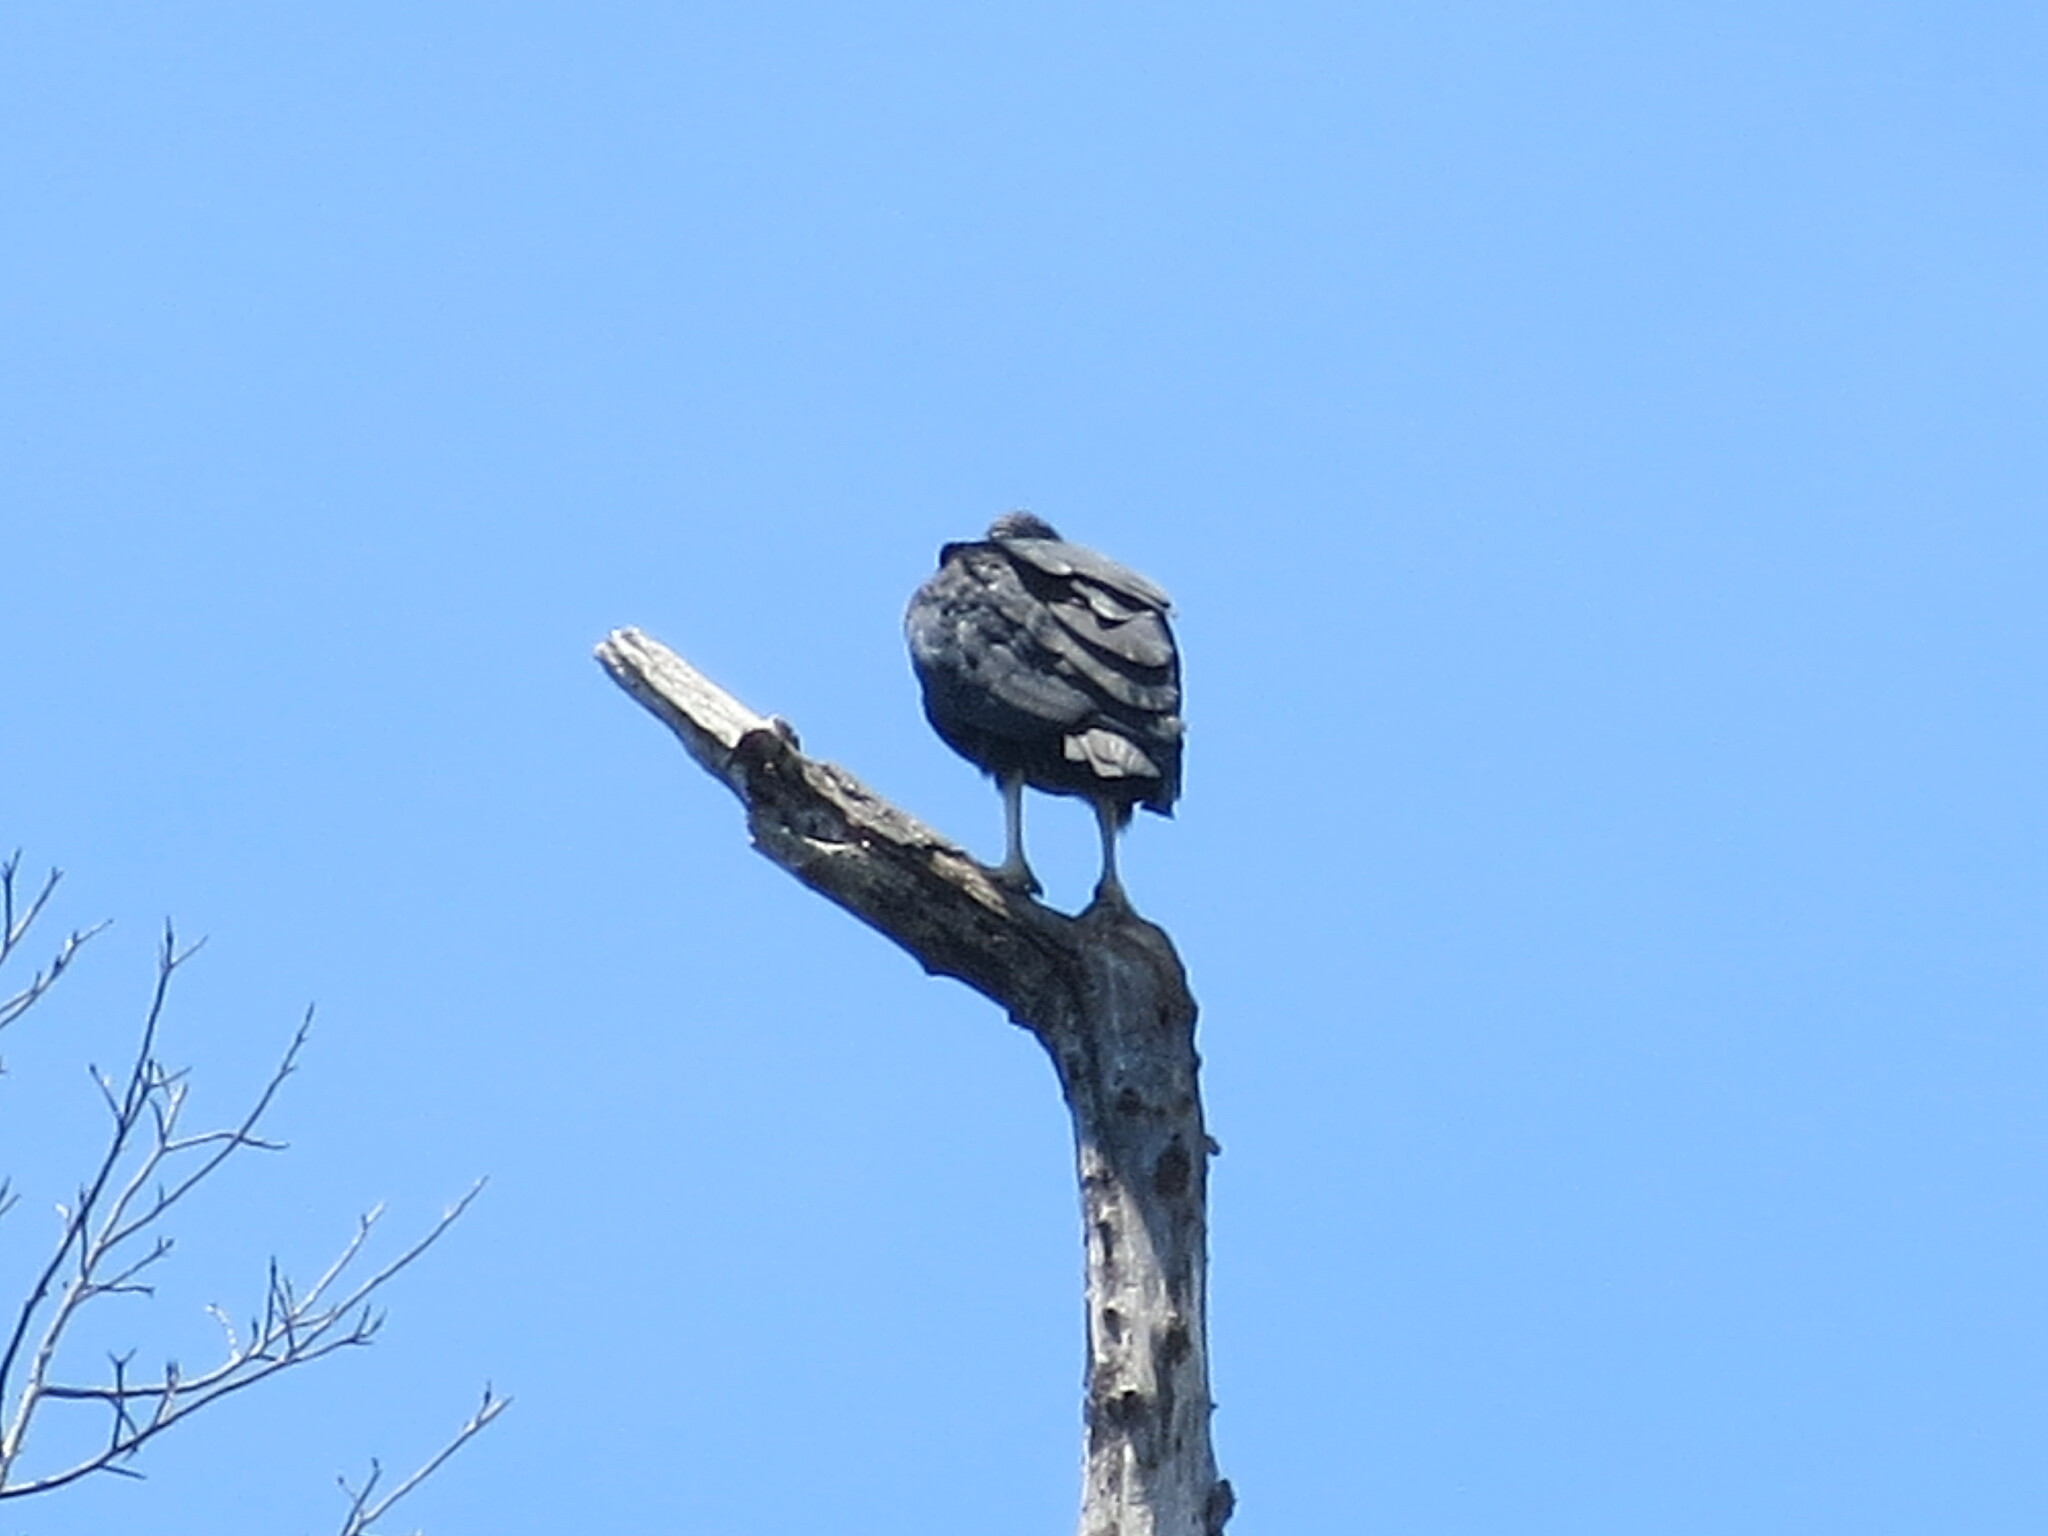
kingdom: Animalia
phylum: Chordata
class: Aves
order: Accipitriformes
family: Cathartidae
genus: Coragyps
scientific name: Coragyps atratus
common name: Black vulture
